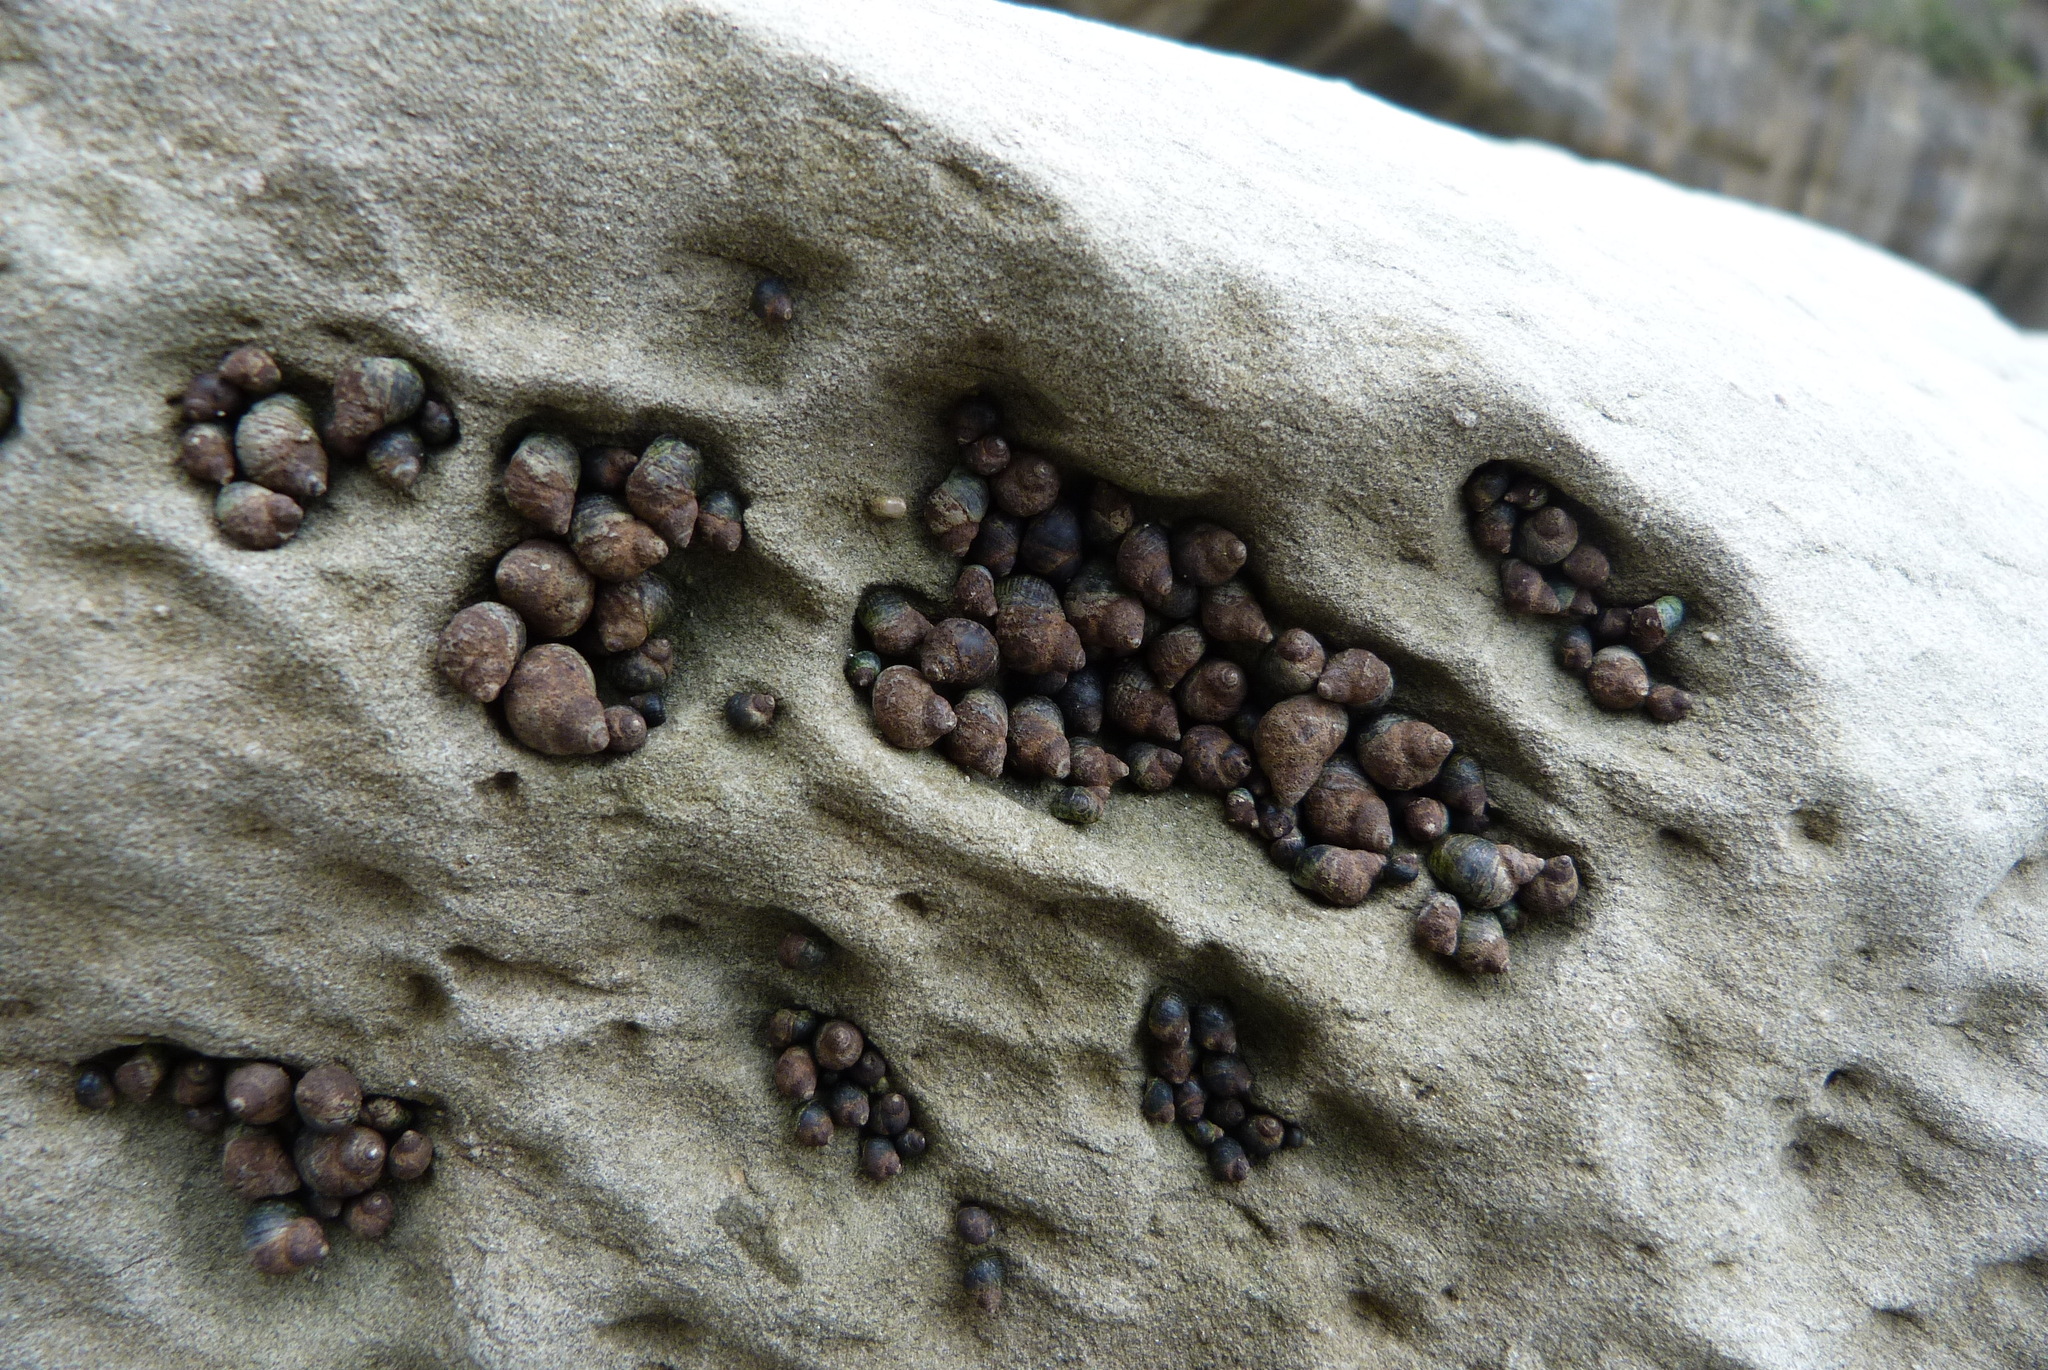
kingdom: Animalia
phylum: Mollusca
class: Gastropoda
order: Littorinimorpha
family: Littorinidae
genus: Austrolittorina
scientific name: Austrolittorina cincta
